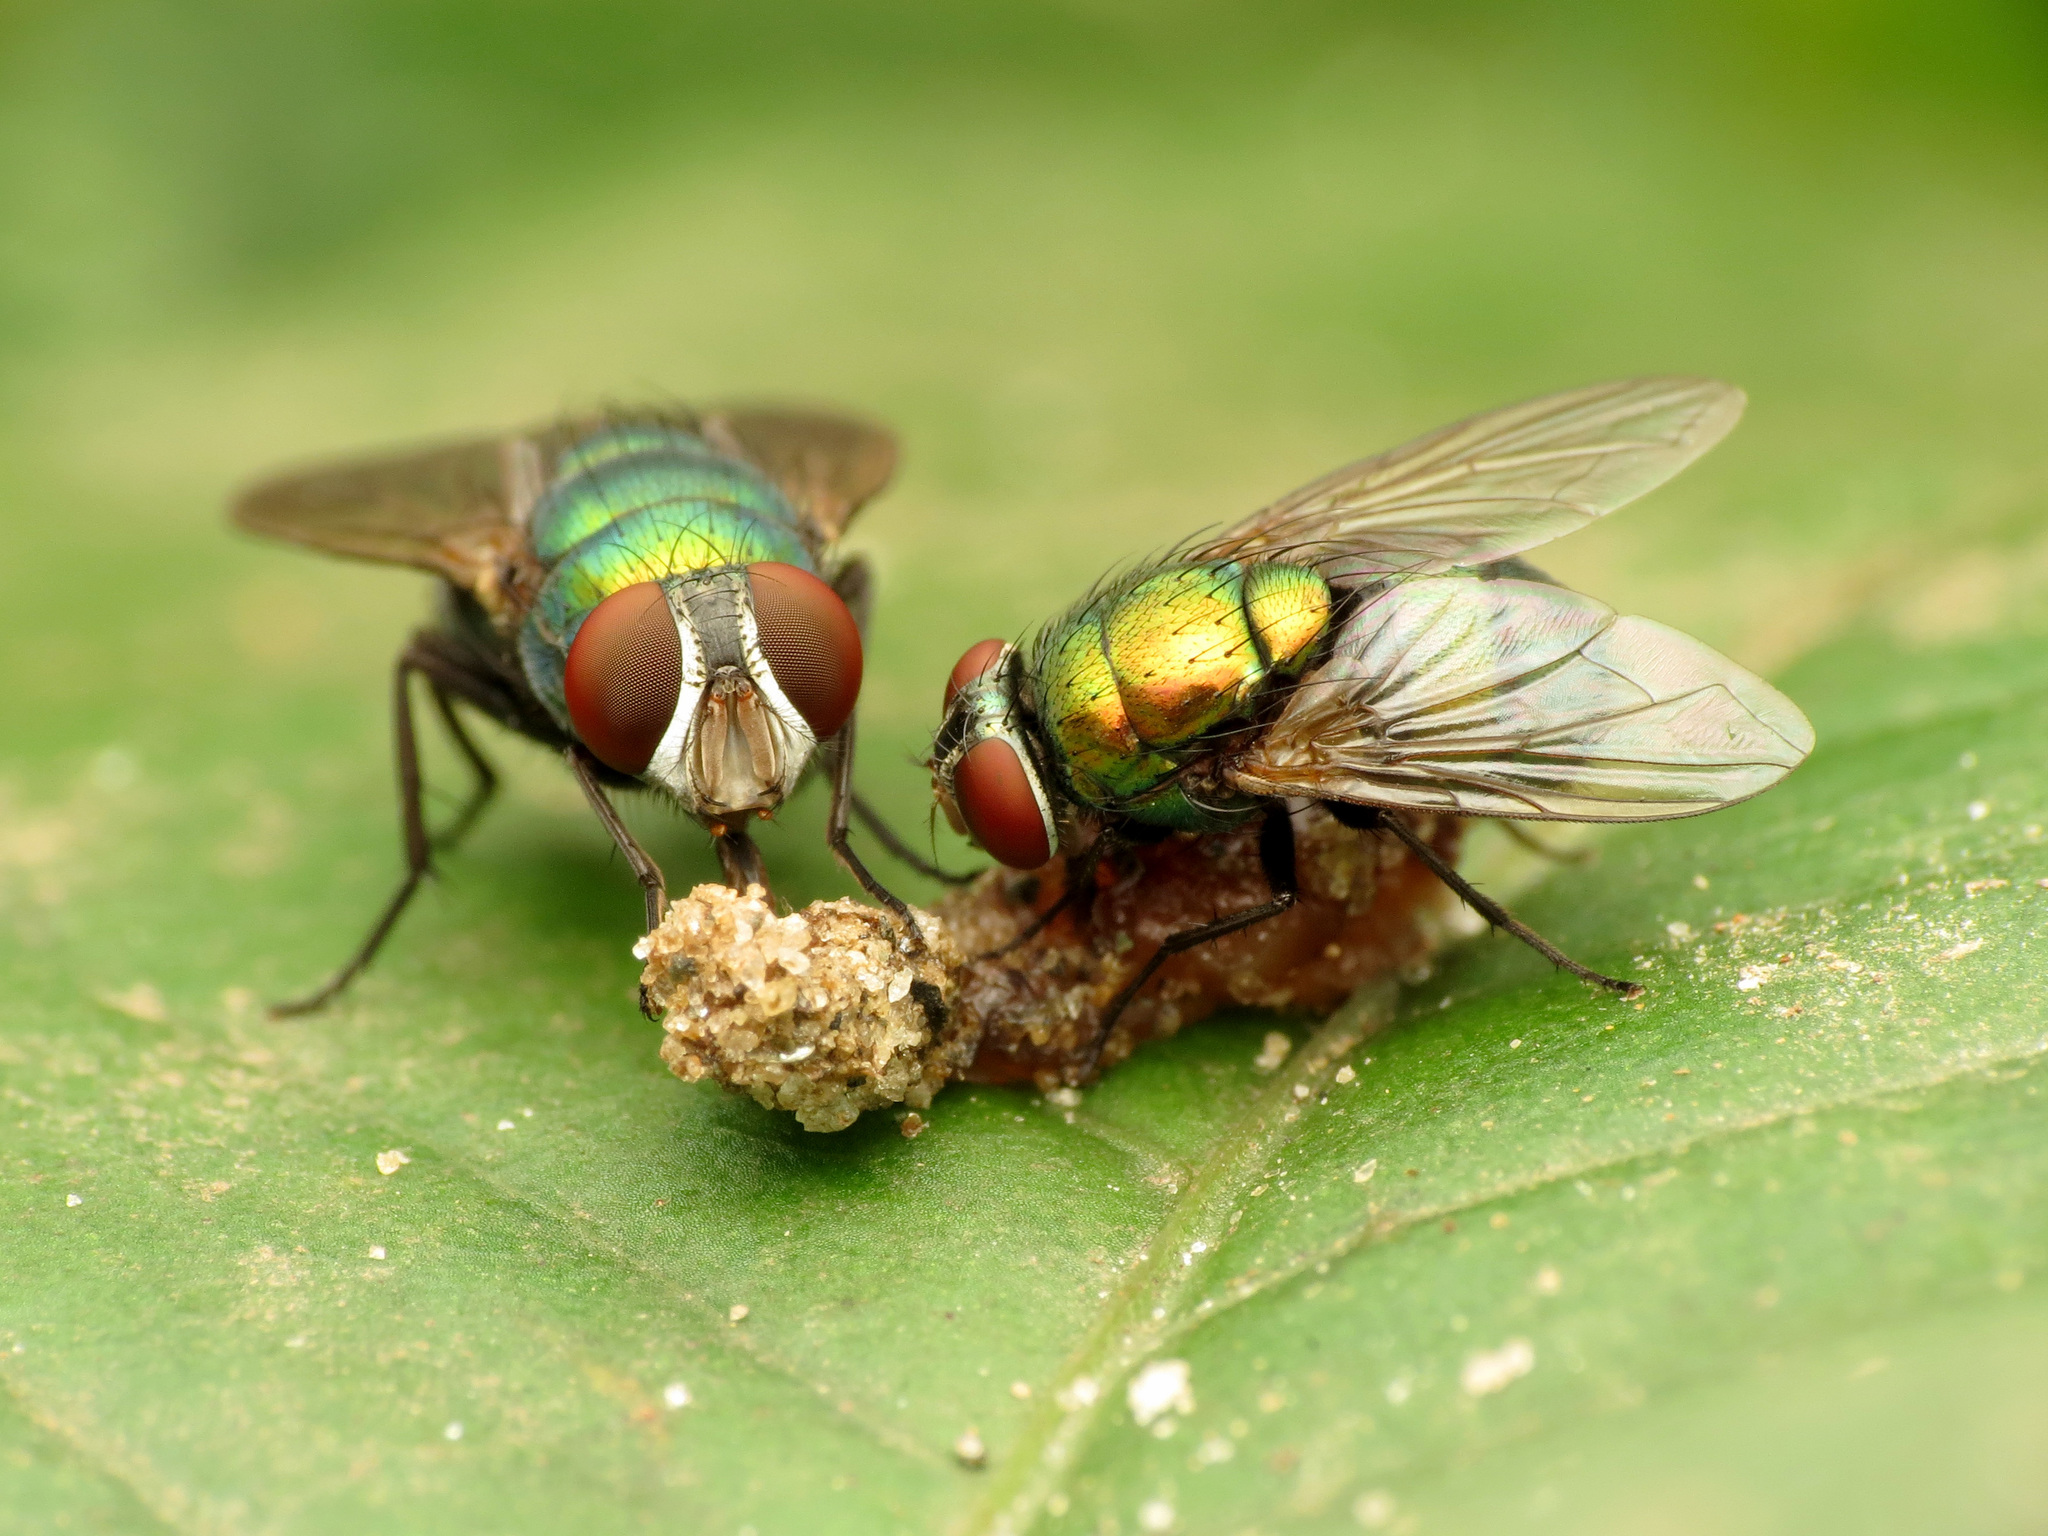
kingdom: Animalia
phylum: Arthropoda
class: Insecta
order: Diptera
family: Calliphoridae
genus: Lucilia
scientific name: Lucilia caeruleiviridis
